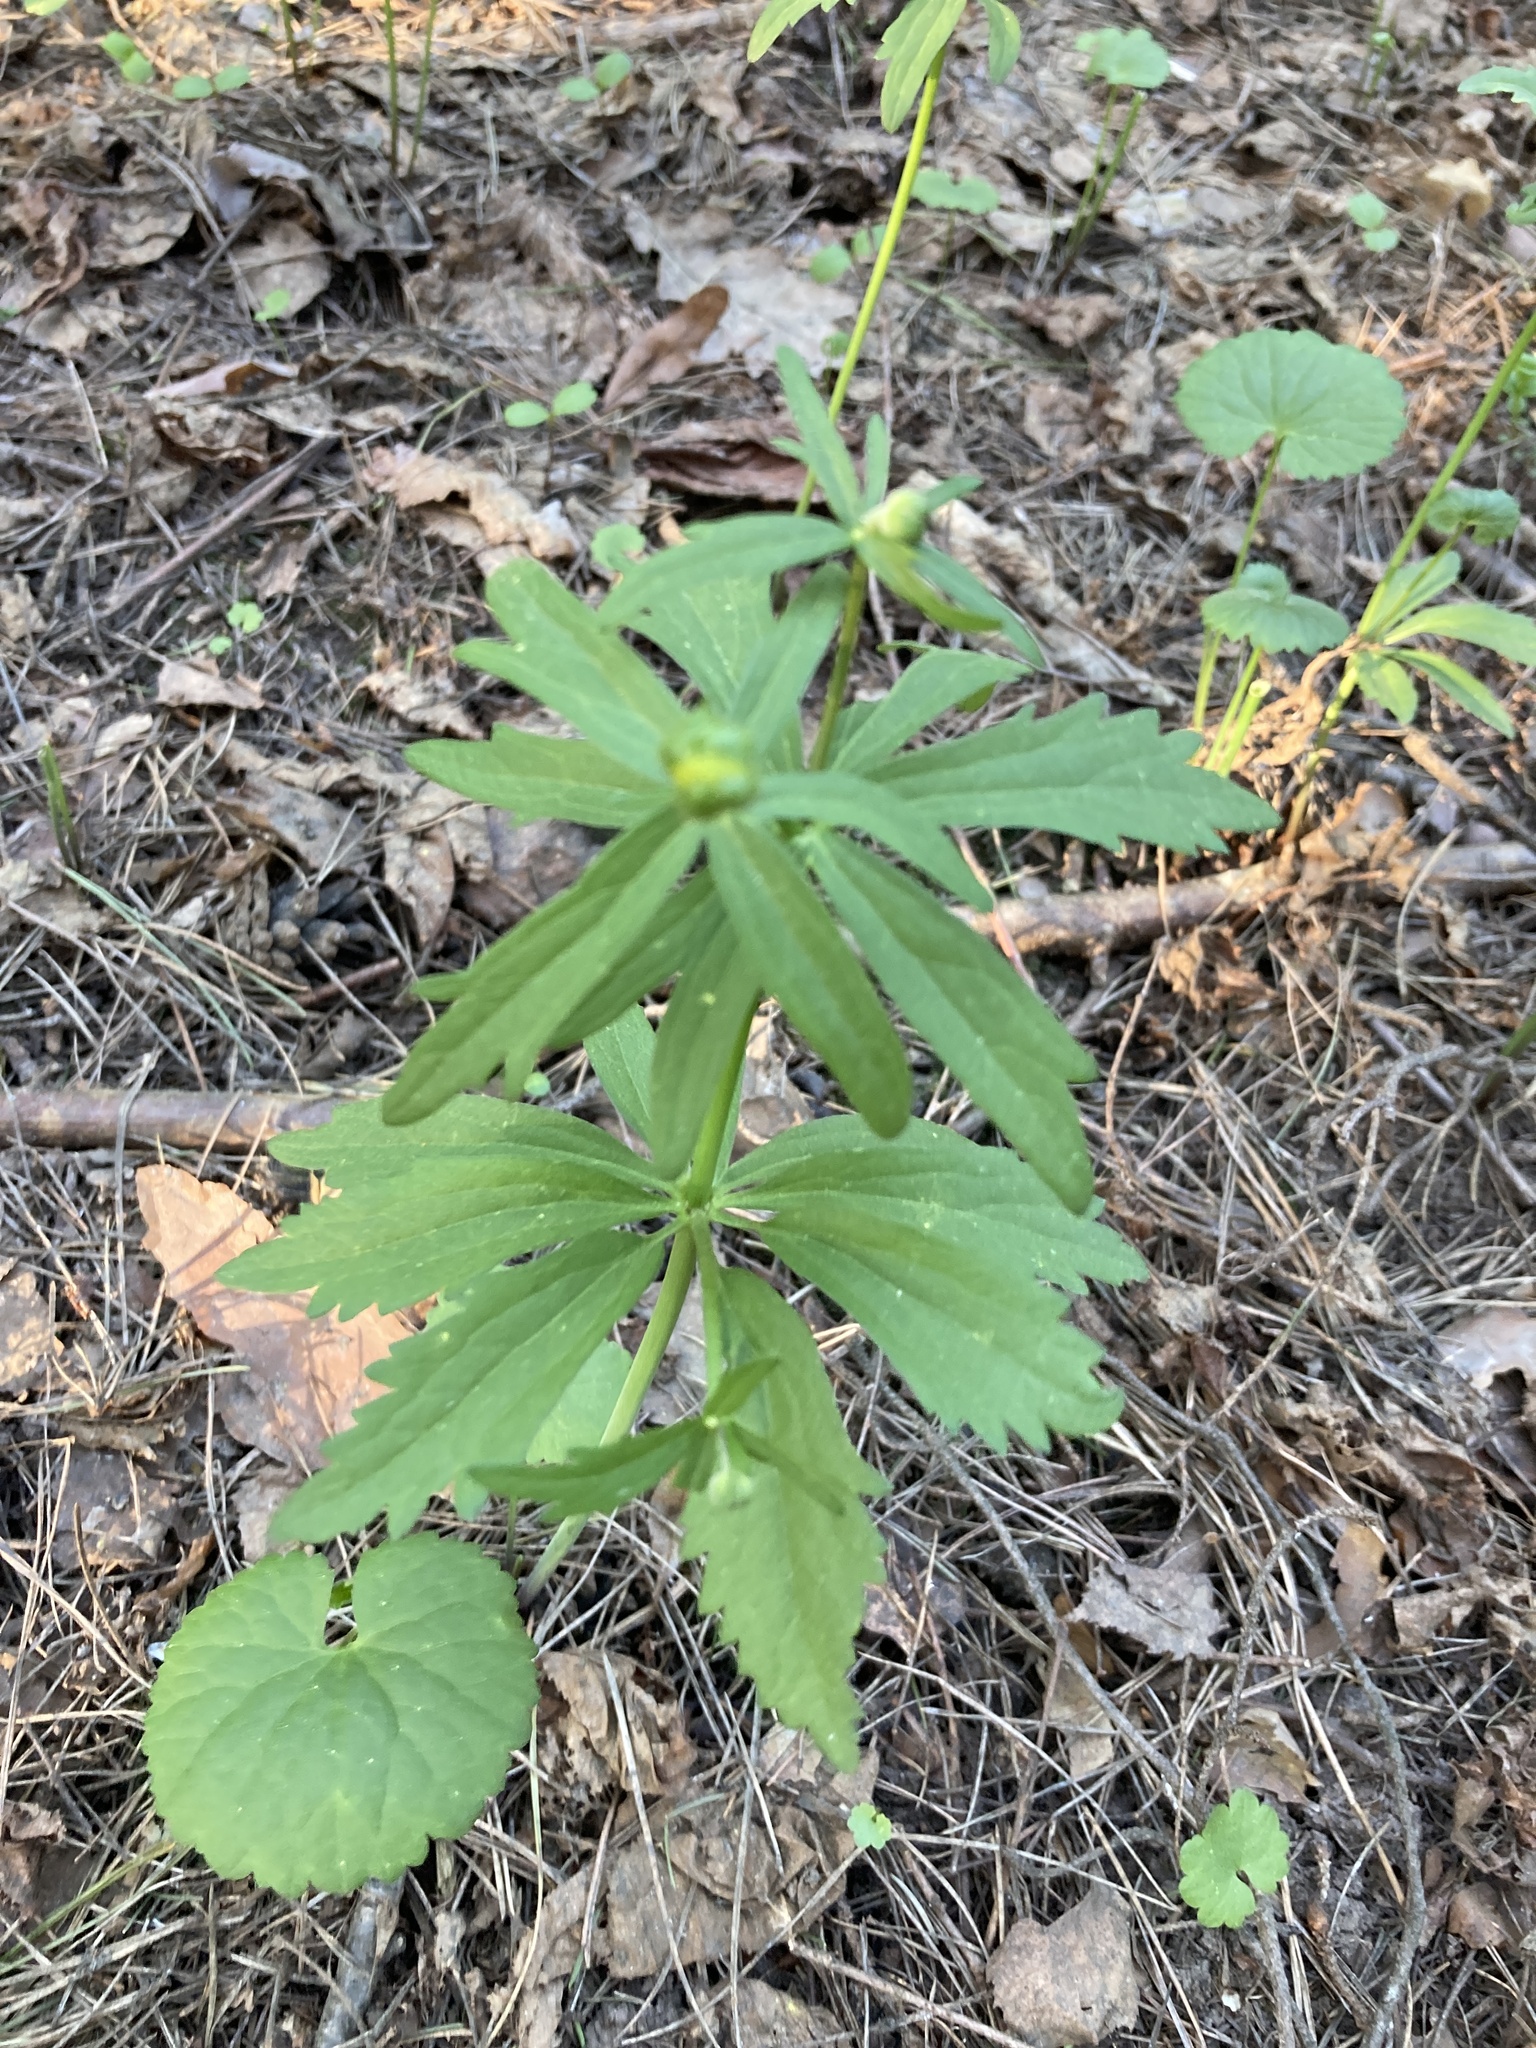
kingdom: Plantae
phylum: Tracheophyta
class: Magnoliopsida
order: Ranunculales
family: Ranunculaceae
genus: Ranunculus
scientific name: Ranunculus cassubicus
